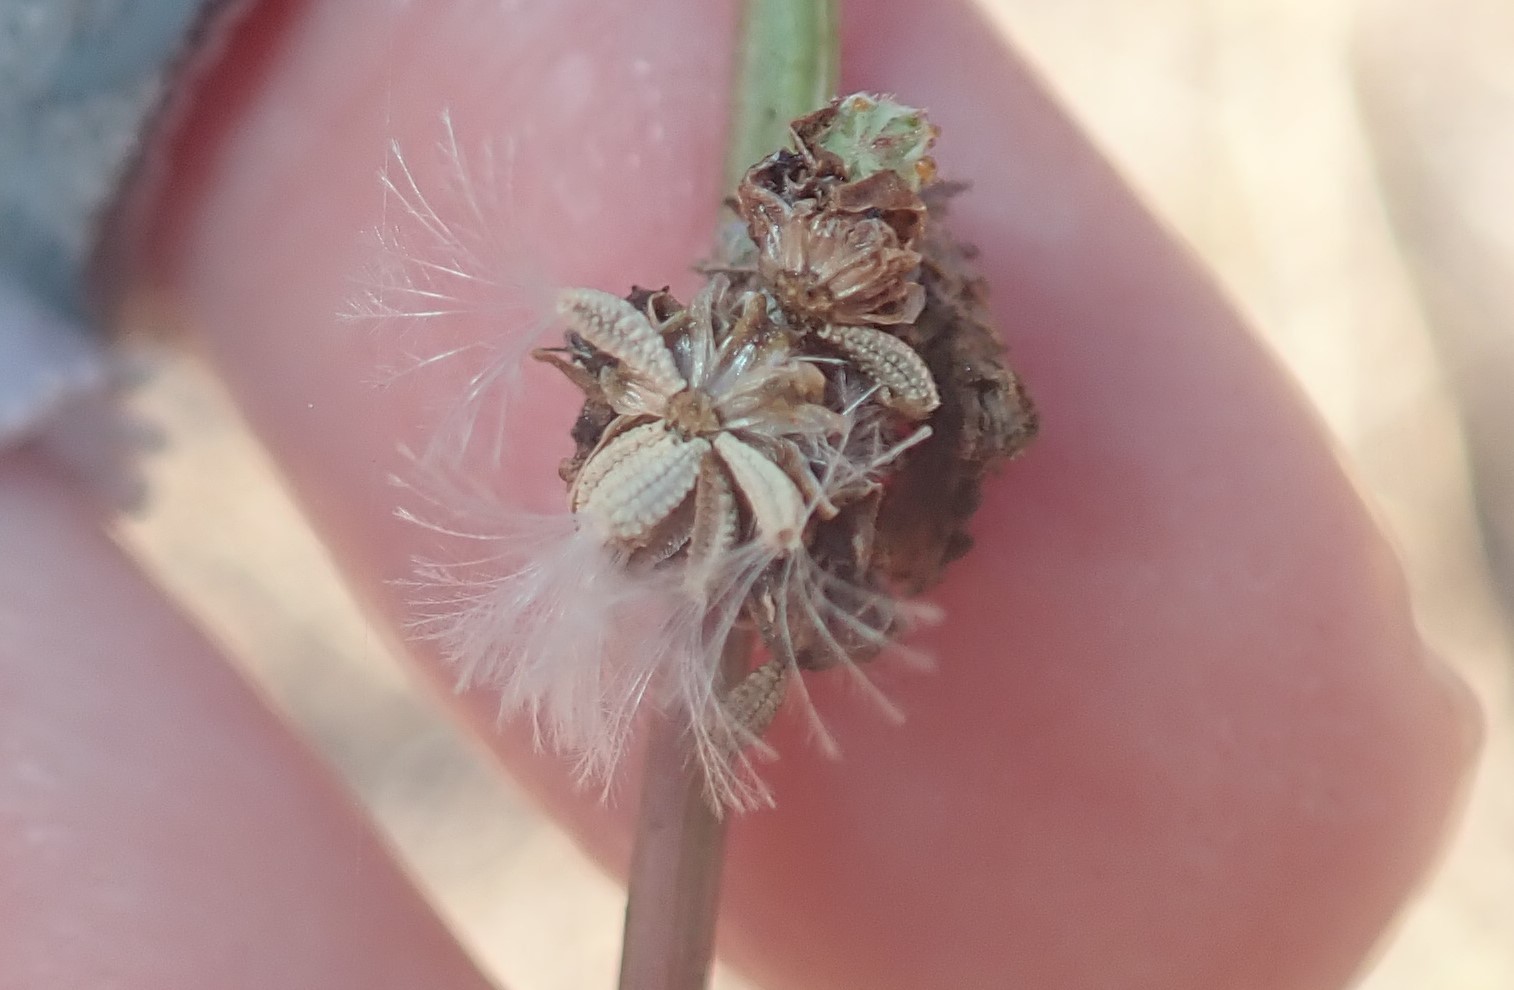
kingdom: Plantae
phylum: Tracheophyta
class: Magnoliopsida
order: Asterales
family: Asteraceae
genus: Stephanomeria
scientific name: Stephanomeria diegensis
